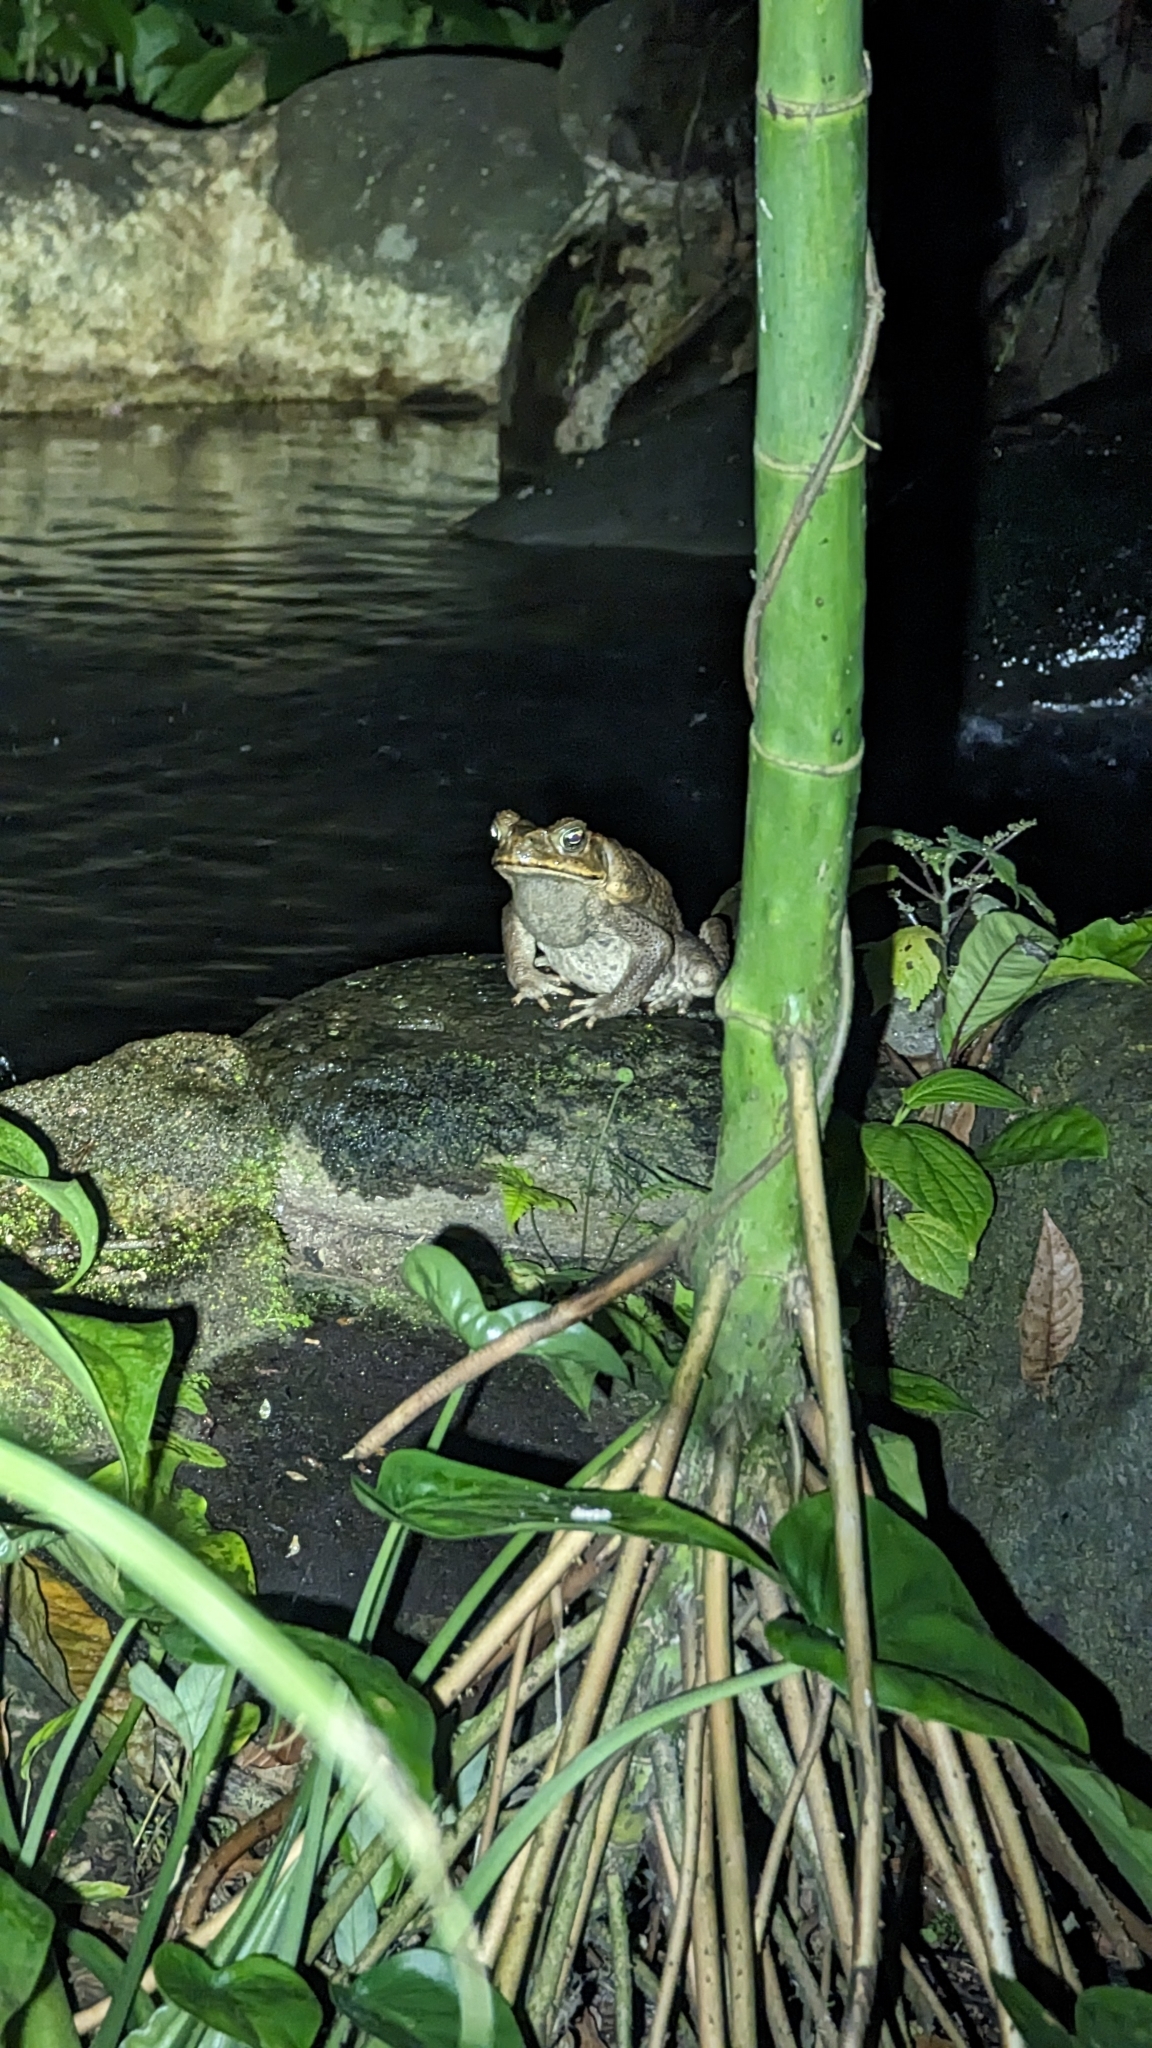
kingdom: Animalia
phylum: Chordata
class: Amphibia
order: Anura
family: Bufonidae
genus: Rhinella
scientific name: Rhinella horribilis
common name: Mesoamerican cane toad
